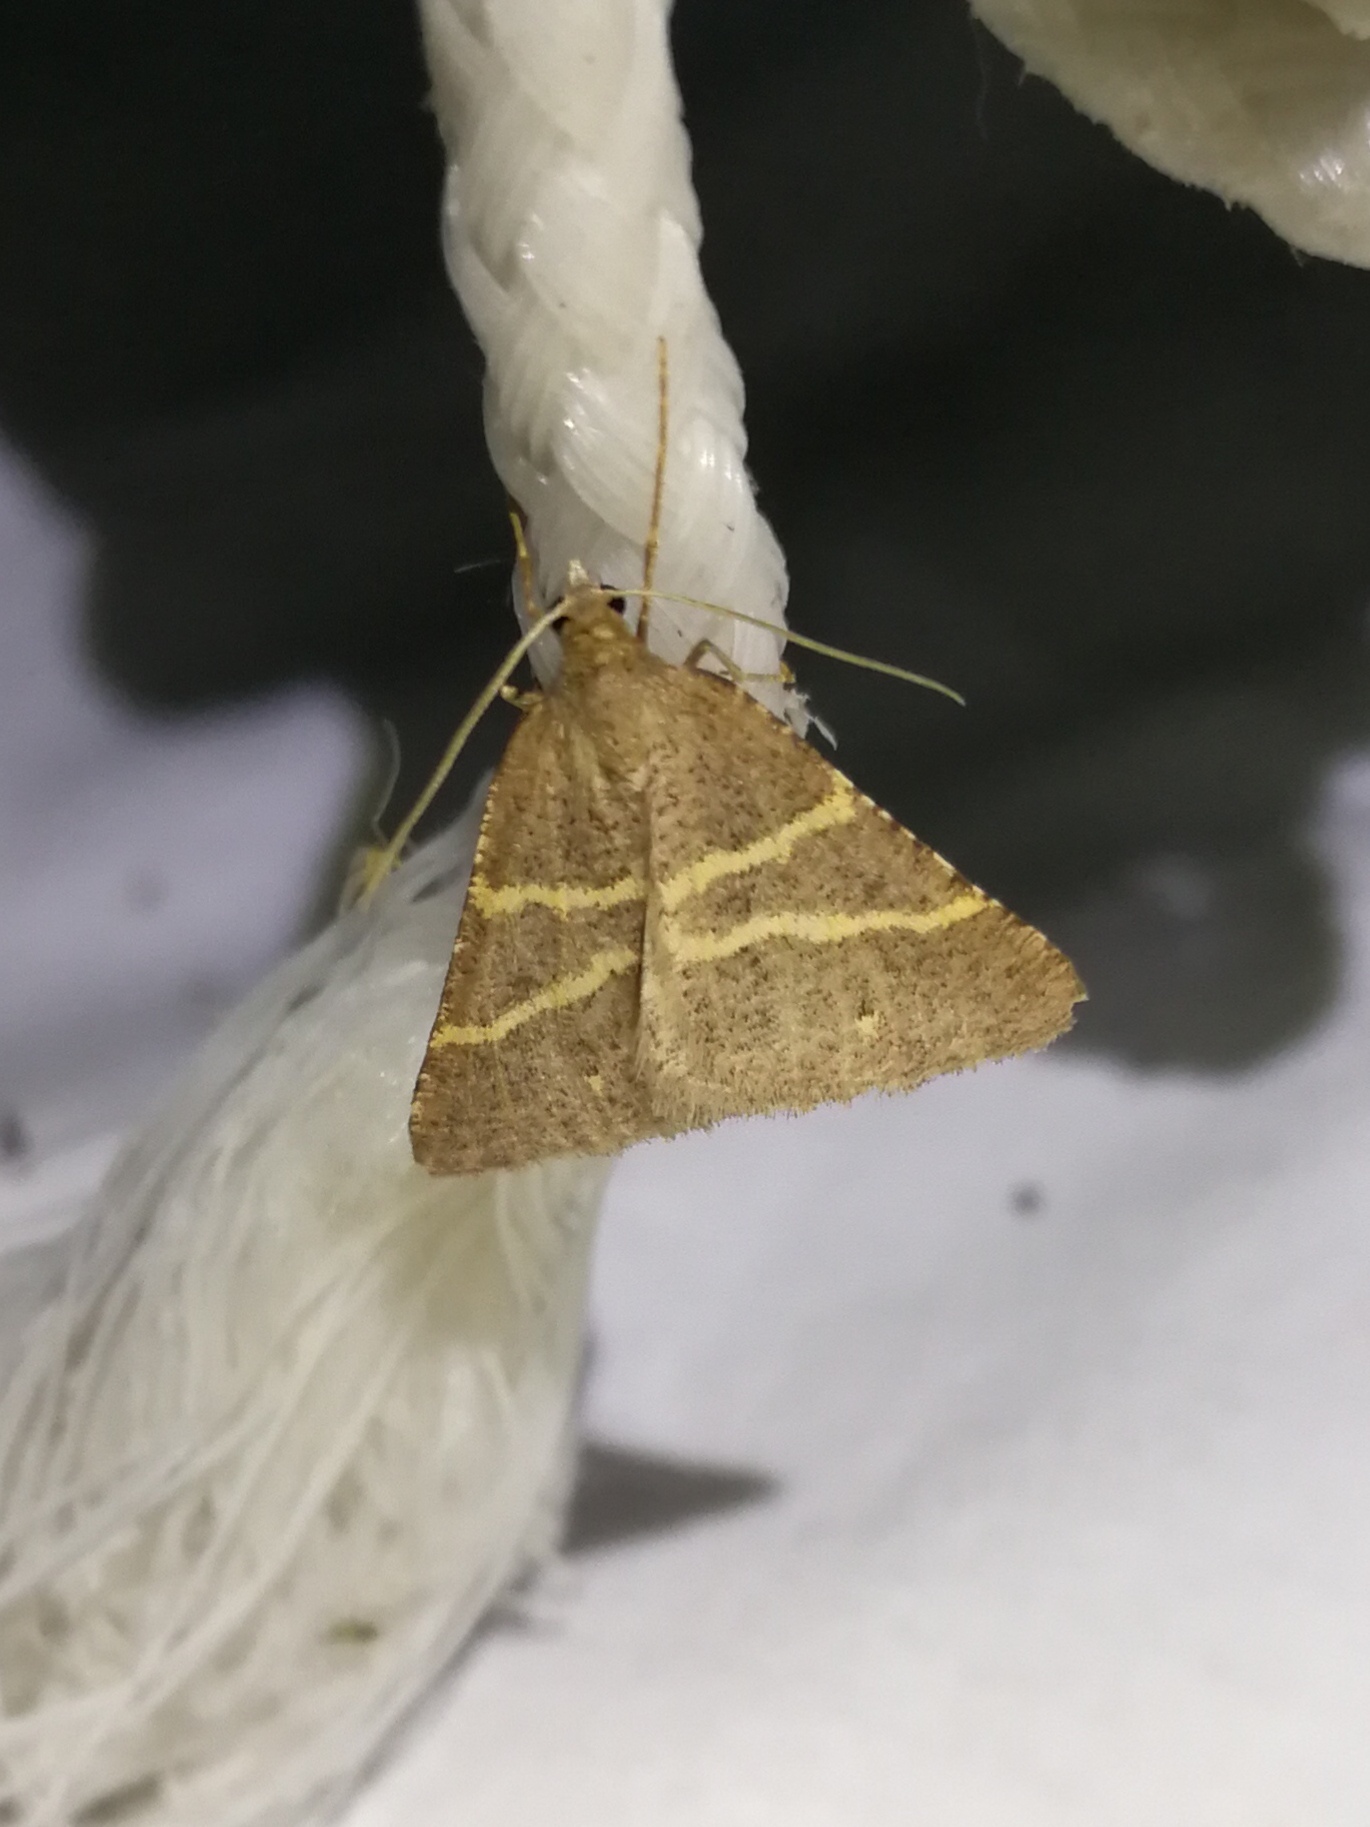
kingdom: Animalia
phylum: Arthropoda
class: Insecta
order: Lepidoptera
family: Pterophoridae
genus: Pterophorus
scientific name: Pterophorus Petrophora narbonea
